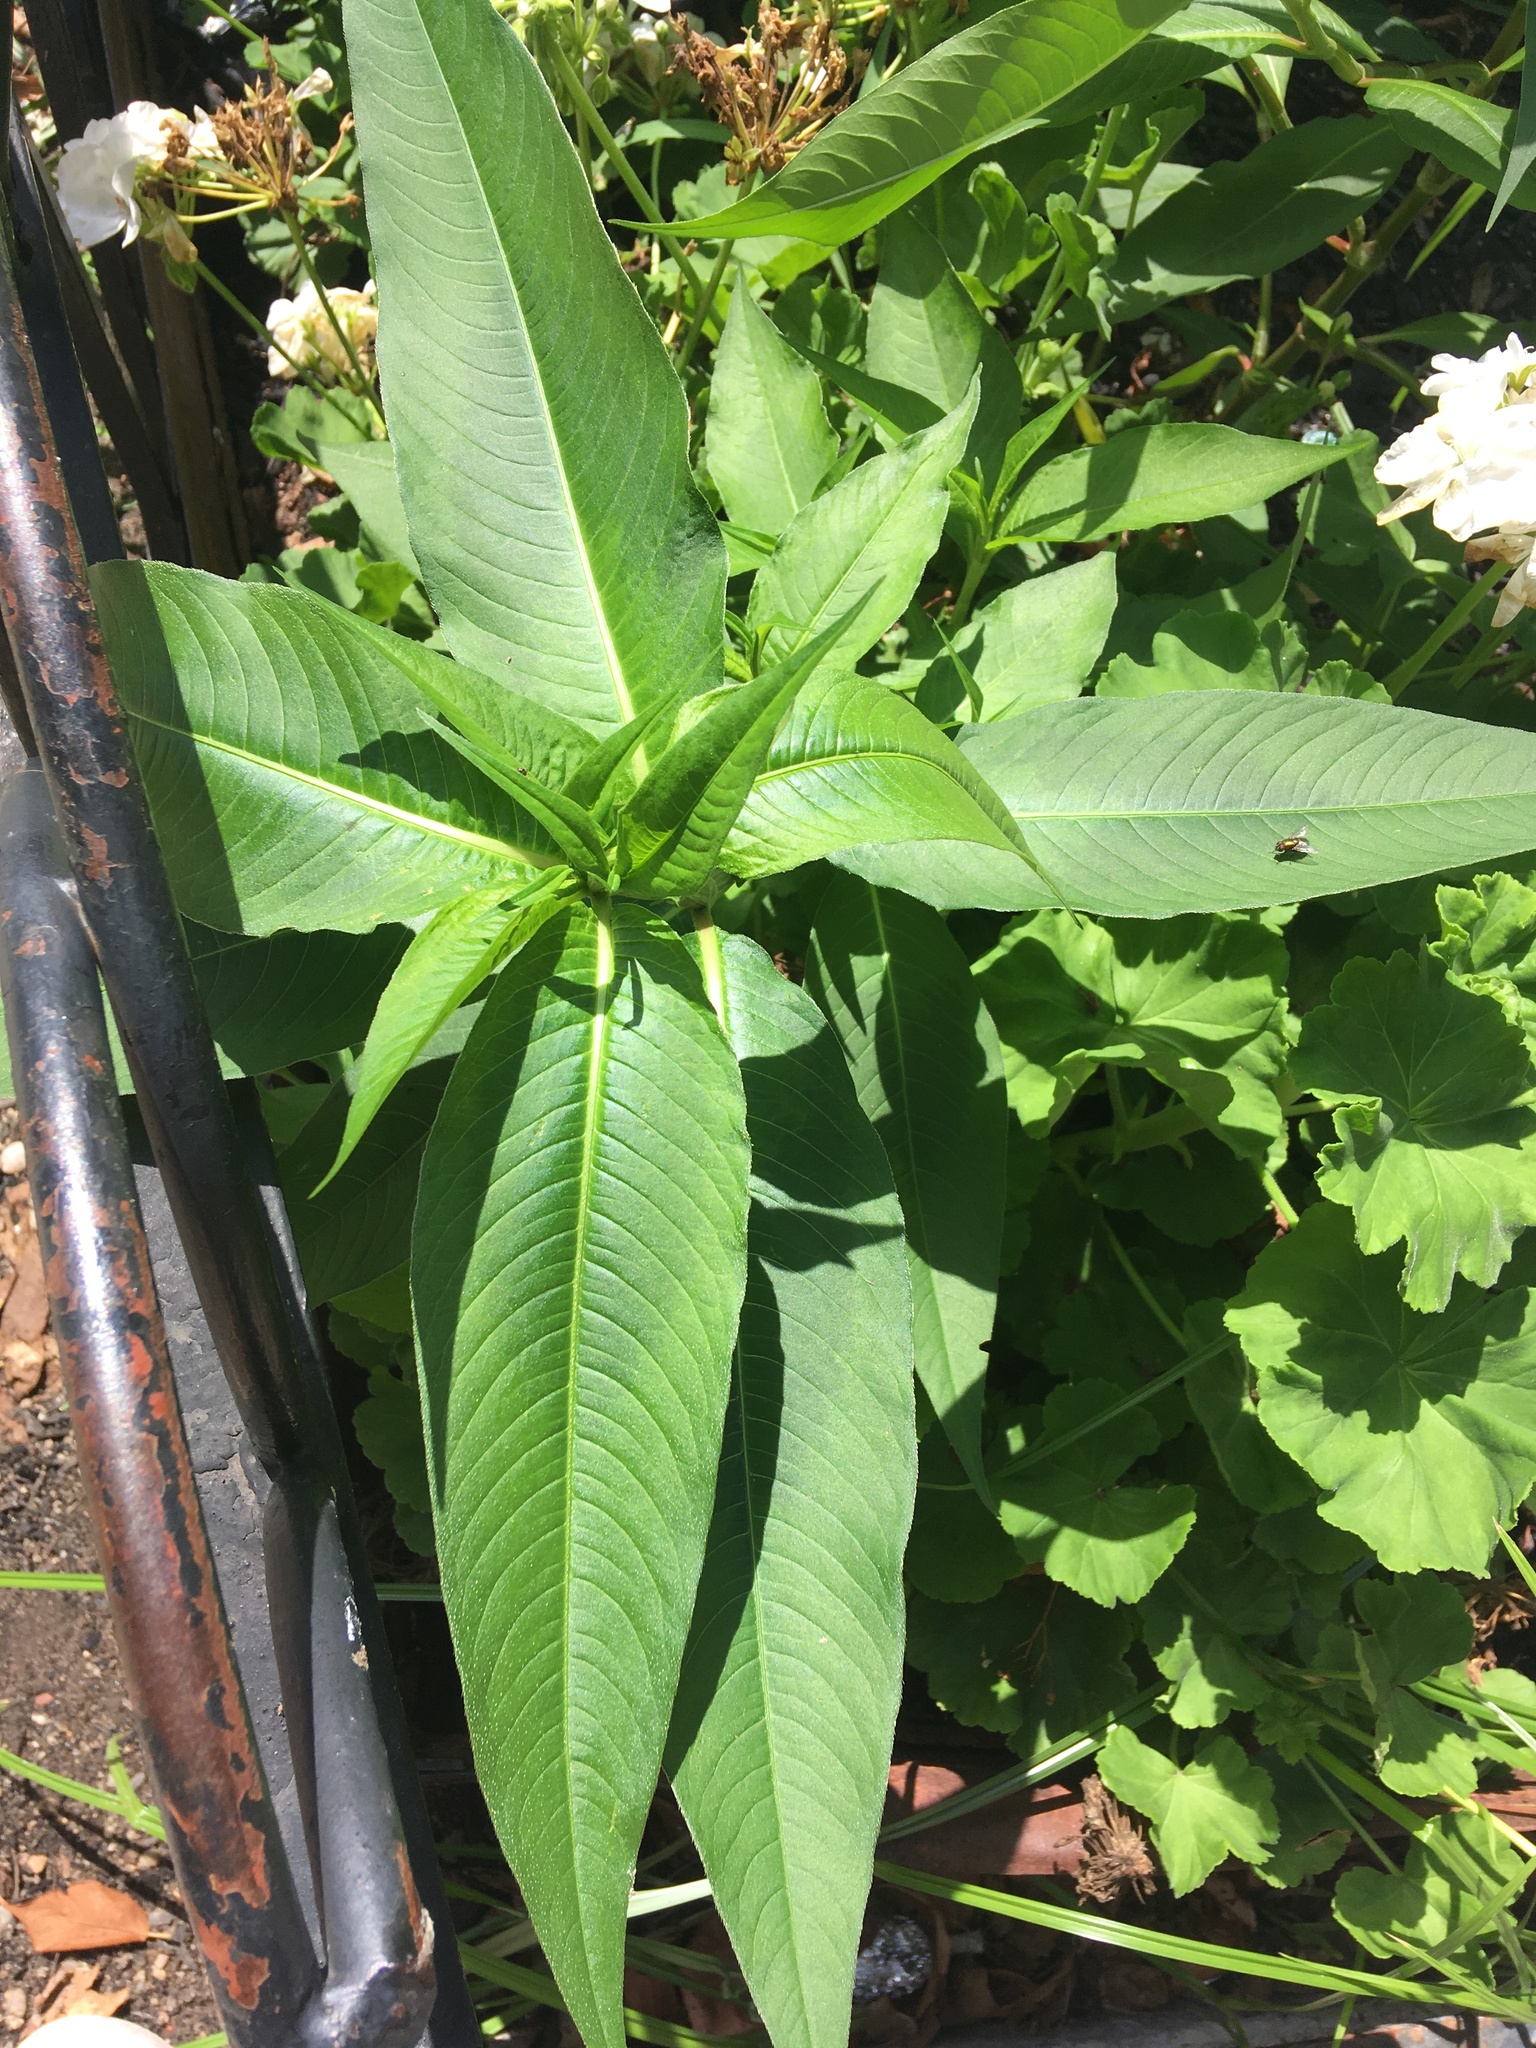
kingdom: Plantae
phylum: Tracheophyta
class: Magnoliopsida
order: Caryophyllales
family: Polygonaceae
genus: Persicaria
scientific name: Persicaria extremiorientalis
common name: Far-eastern smartweed
